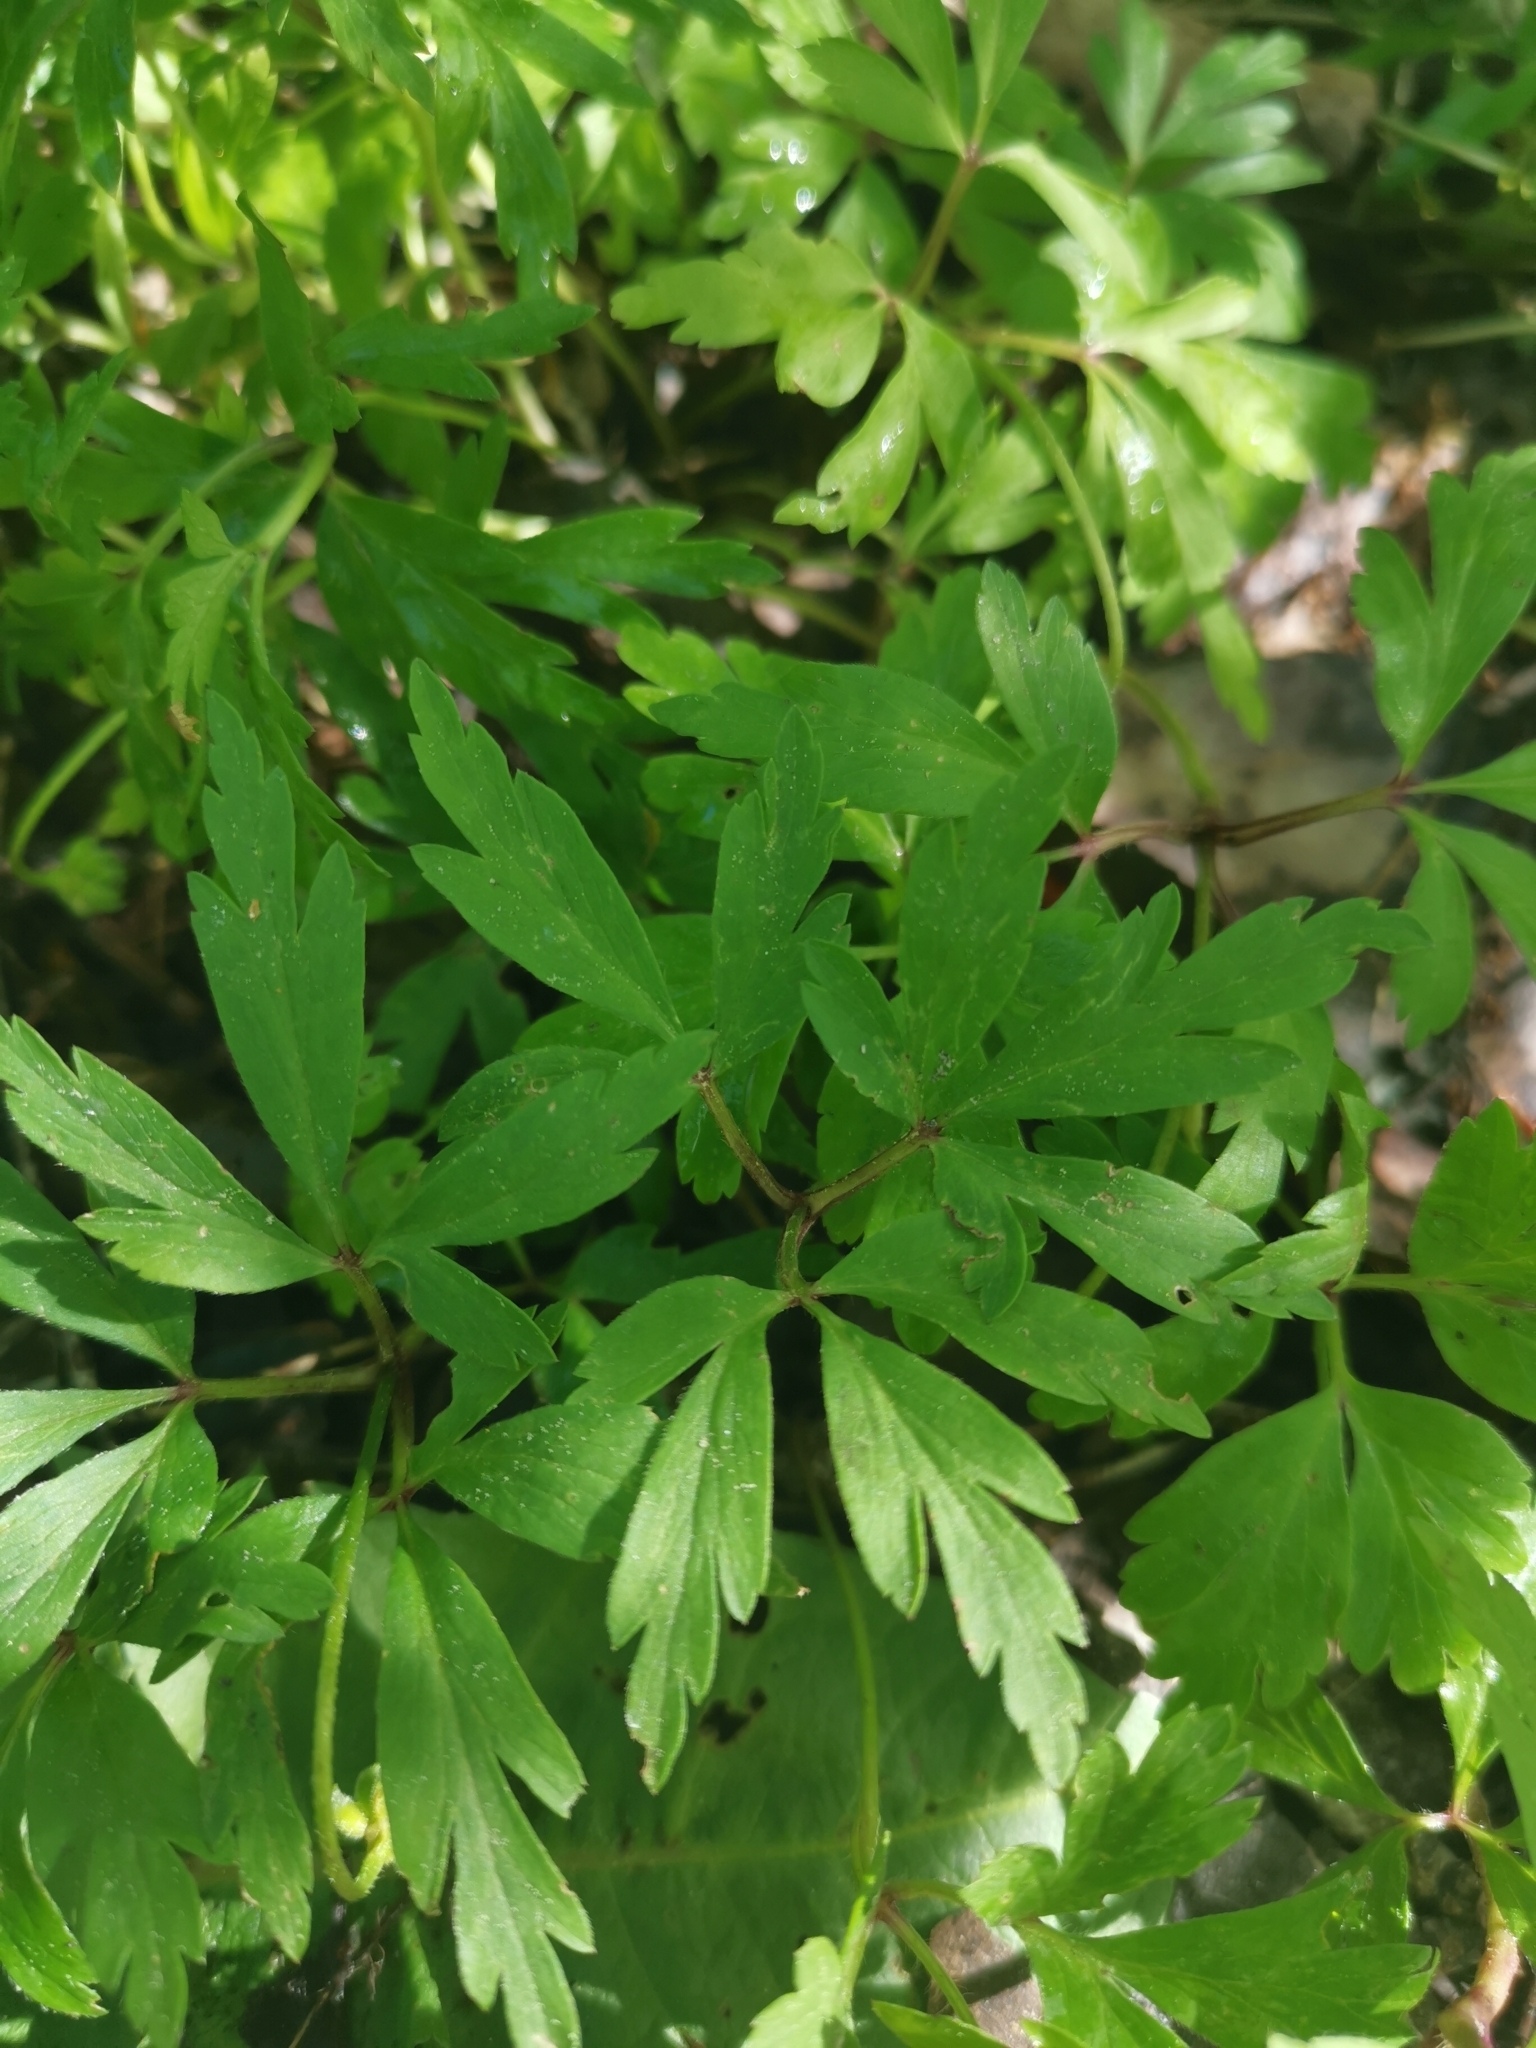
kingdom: Plantae
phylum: Tracheophyta
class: Magnoliopsida
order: Ranunculales
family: Ranunculaceae
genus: Anemone
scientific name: Anemone nemorosa
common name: Wood anemone
